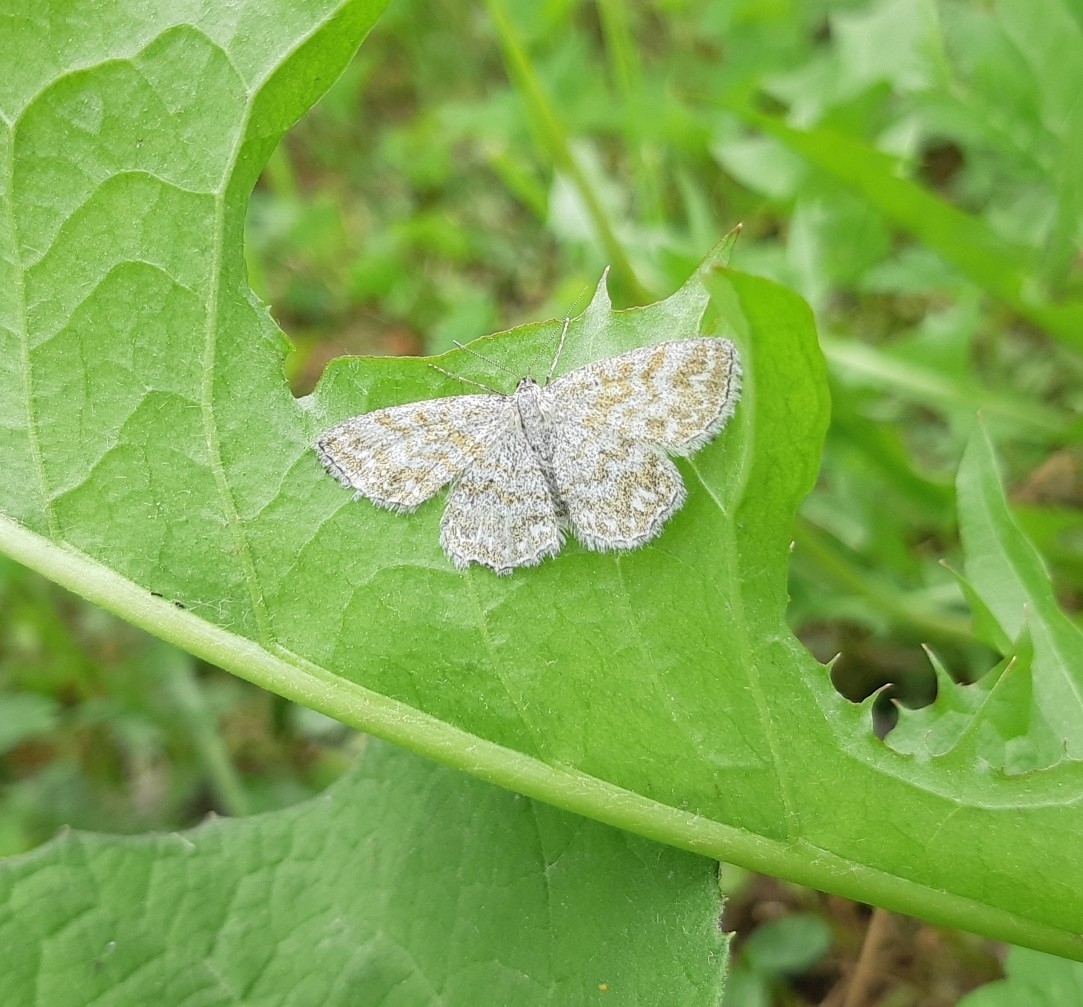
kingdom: Animalia
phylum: Arthropoda
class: Insecta
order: Lepidoptera
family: Geometridae
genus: Scopula
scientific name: Scopula immorata
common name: Lewes wave
